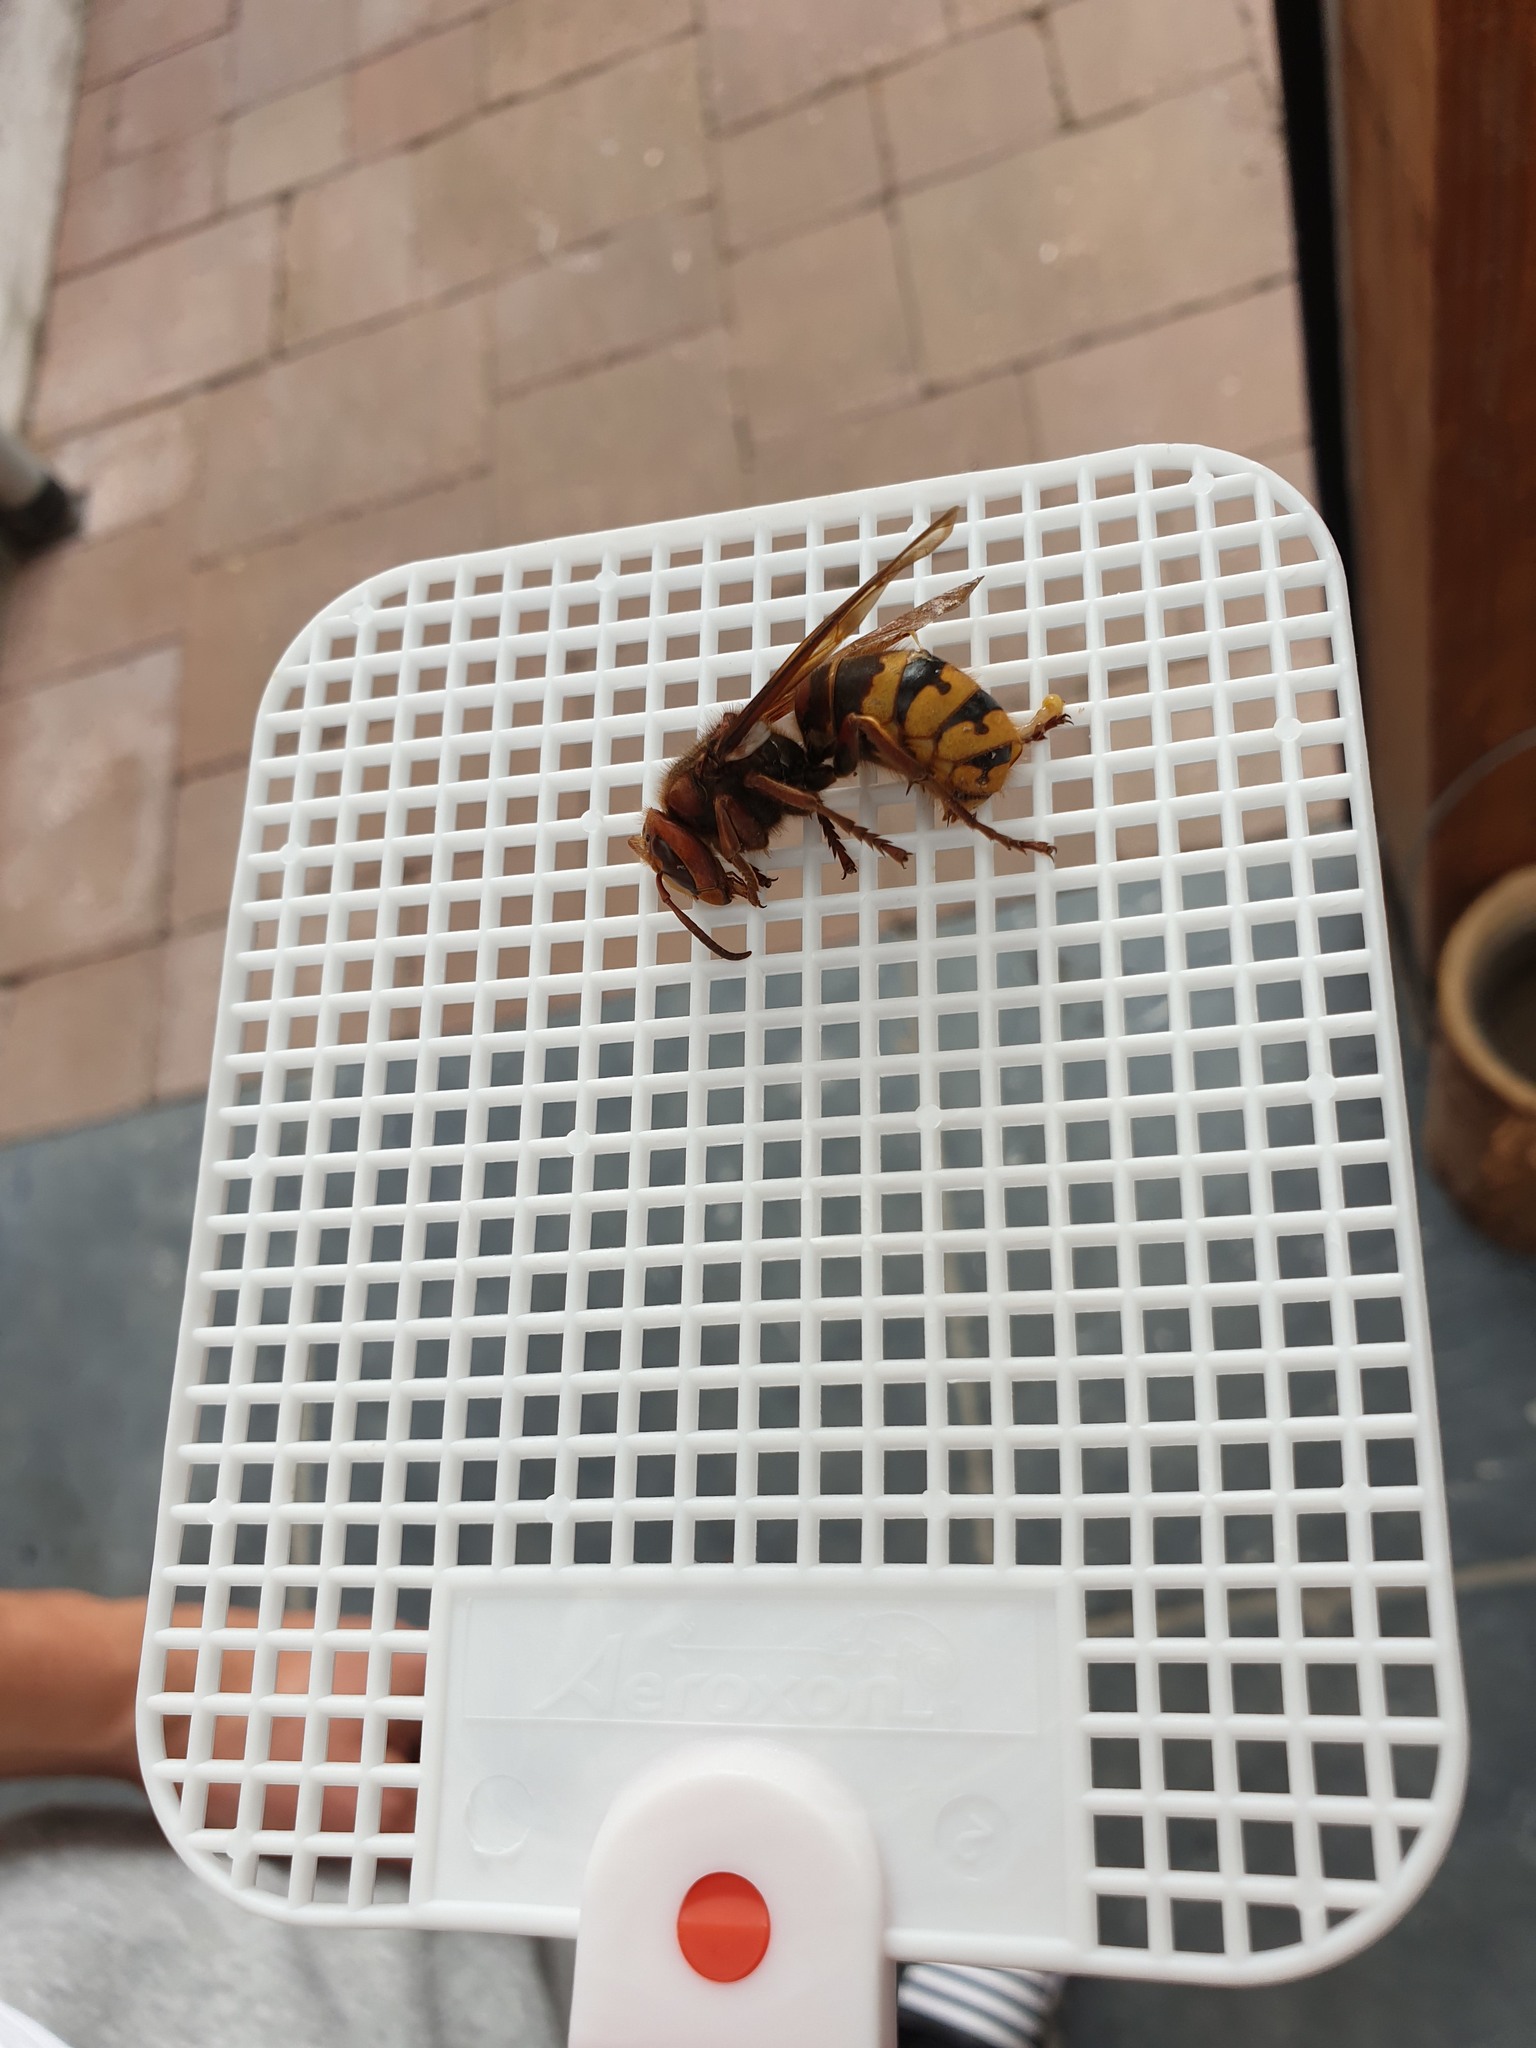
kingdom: Animalia
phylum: Arthropoda
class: Insecta
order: Hymenoptera
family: Vespidae
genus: Vespa
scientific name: Vespa crabro
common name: Hornet
